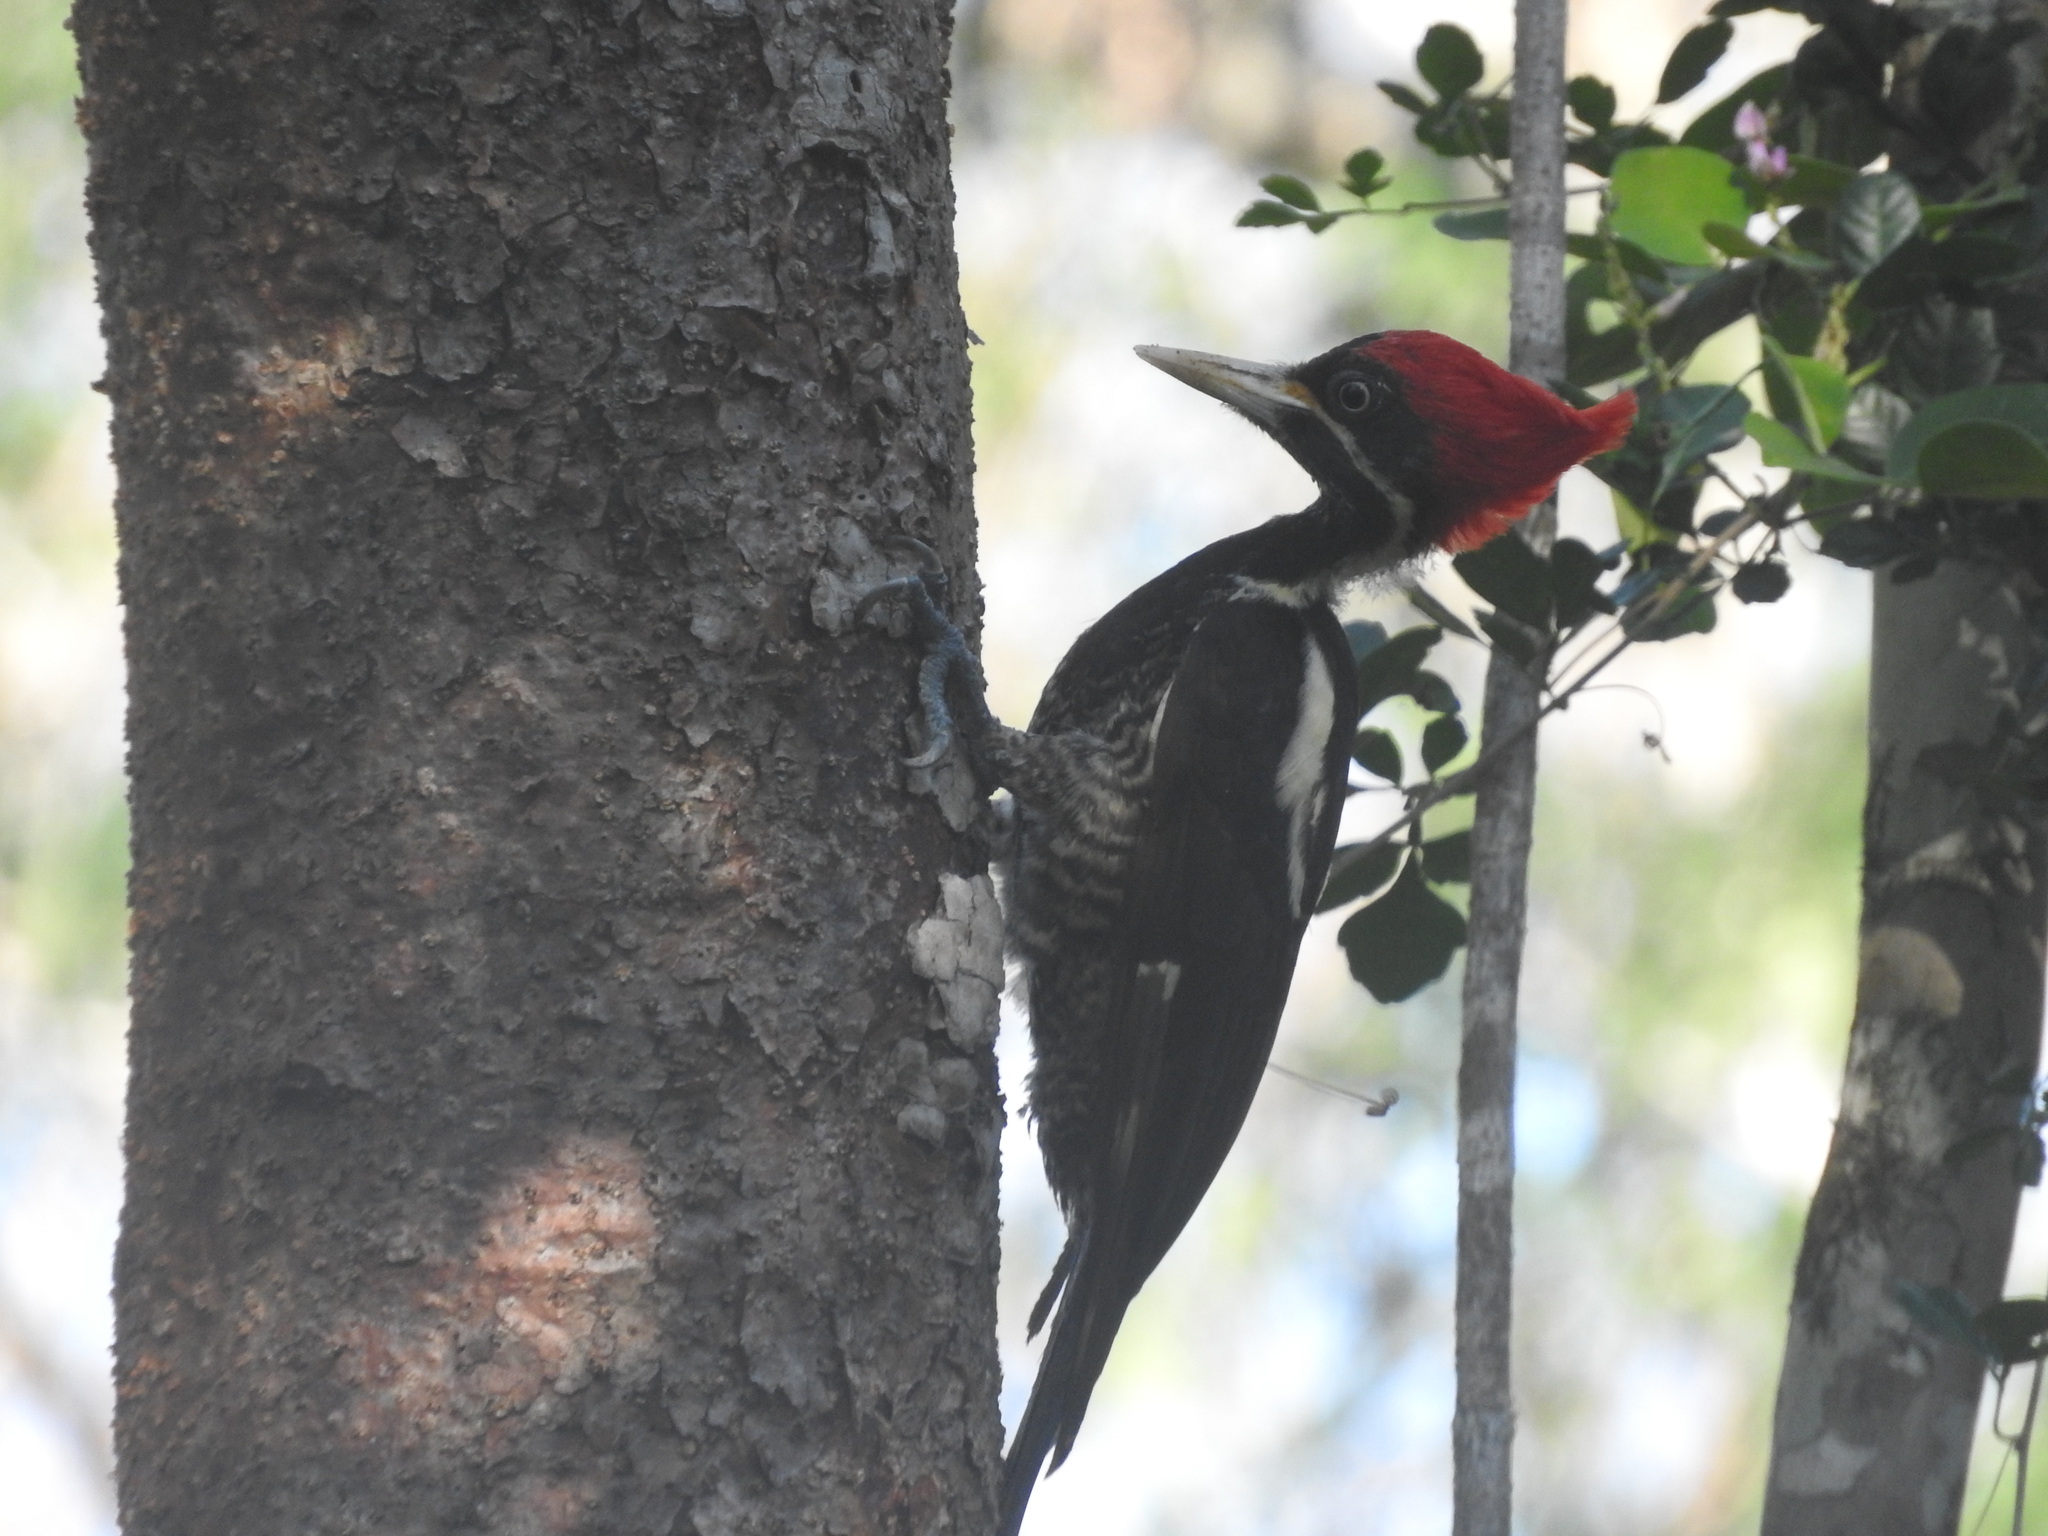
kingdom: Animalia
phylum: Chordata
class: Aves
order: Piciformes
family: Picidae
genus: Dryocopus
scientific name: Dryocopus lineatus
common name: Lineated woodpecker
